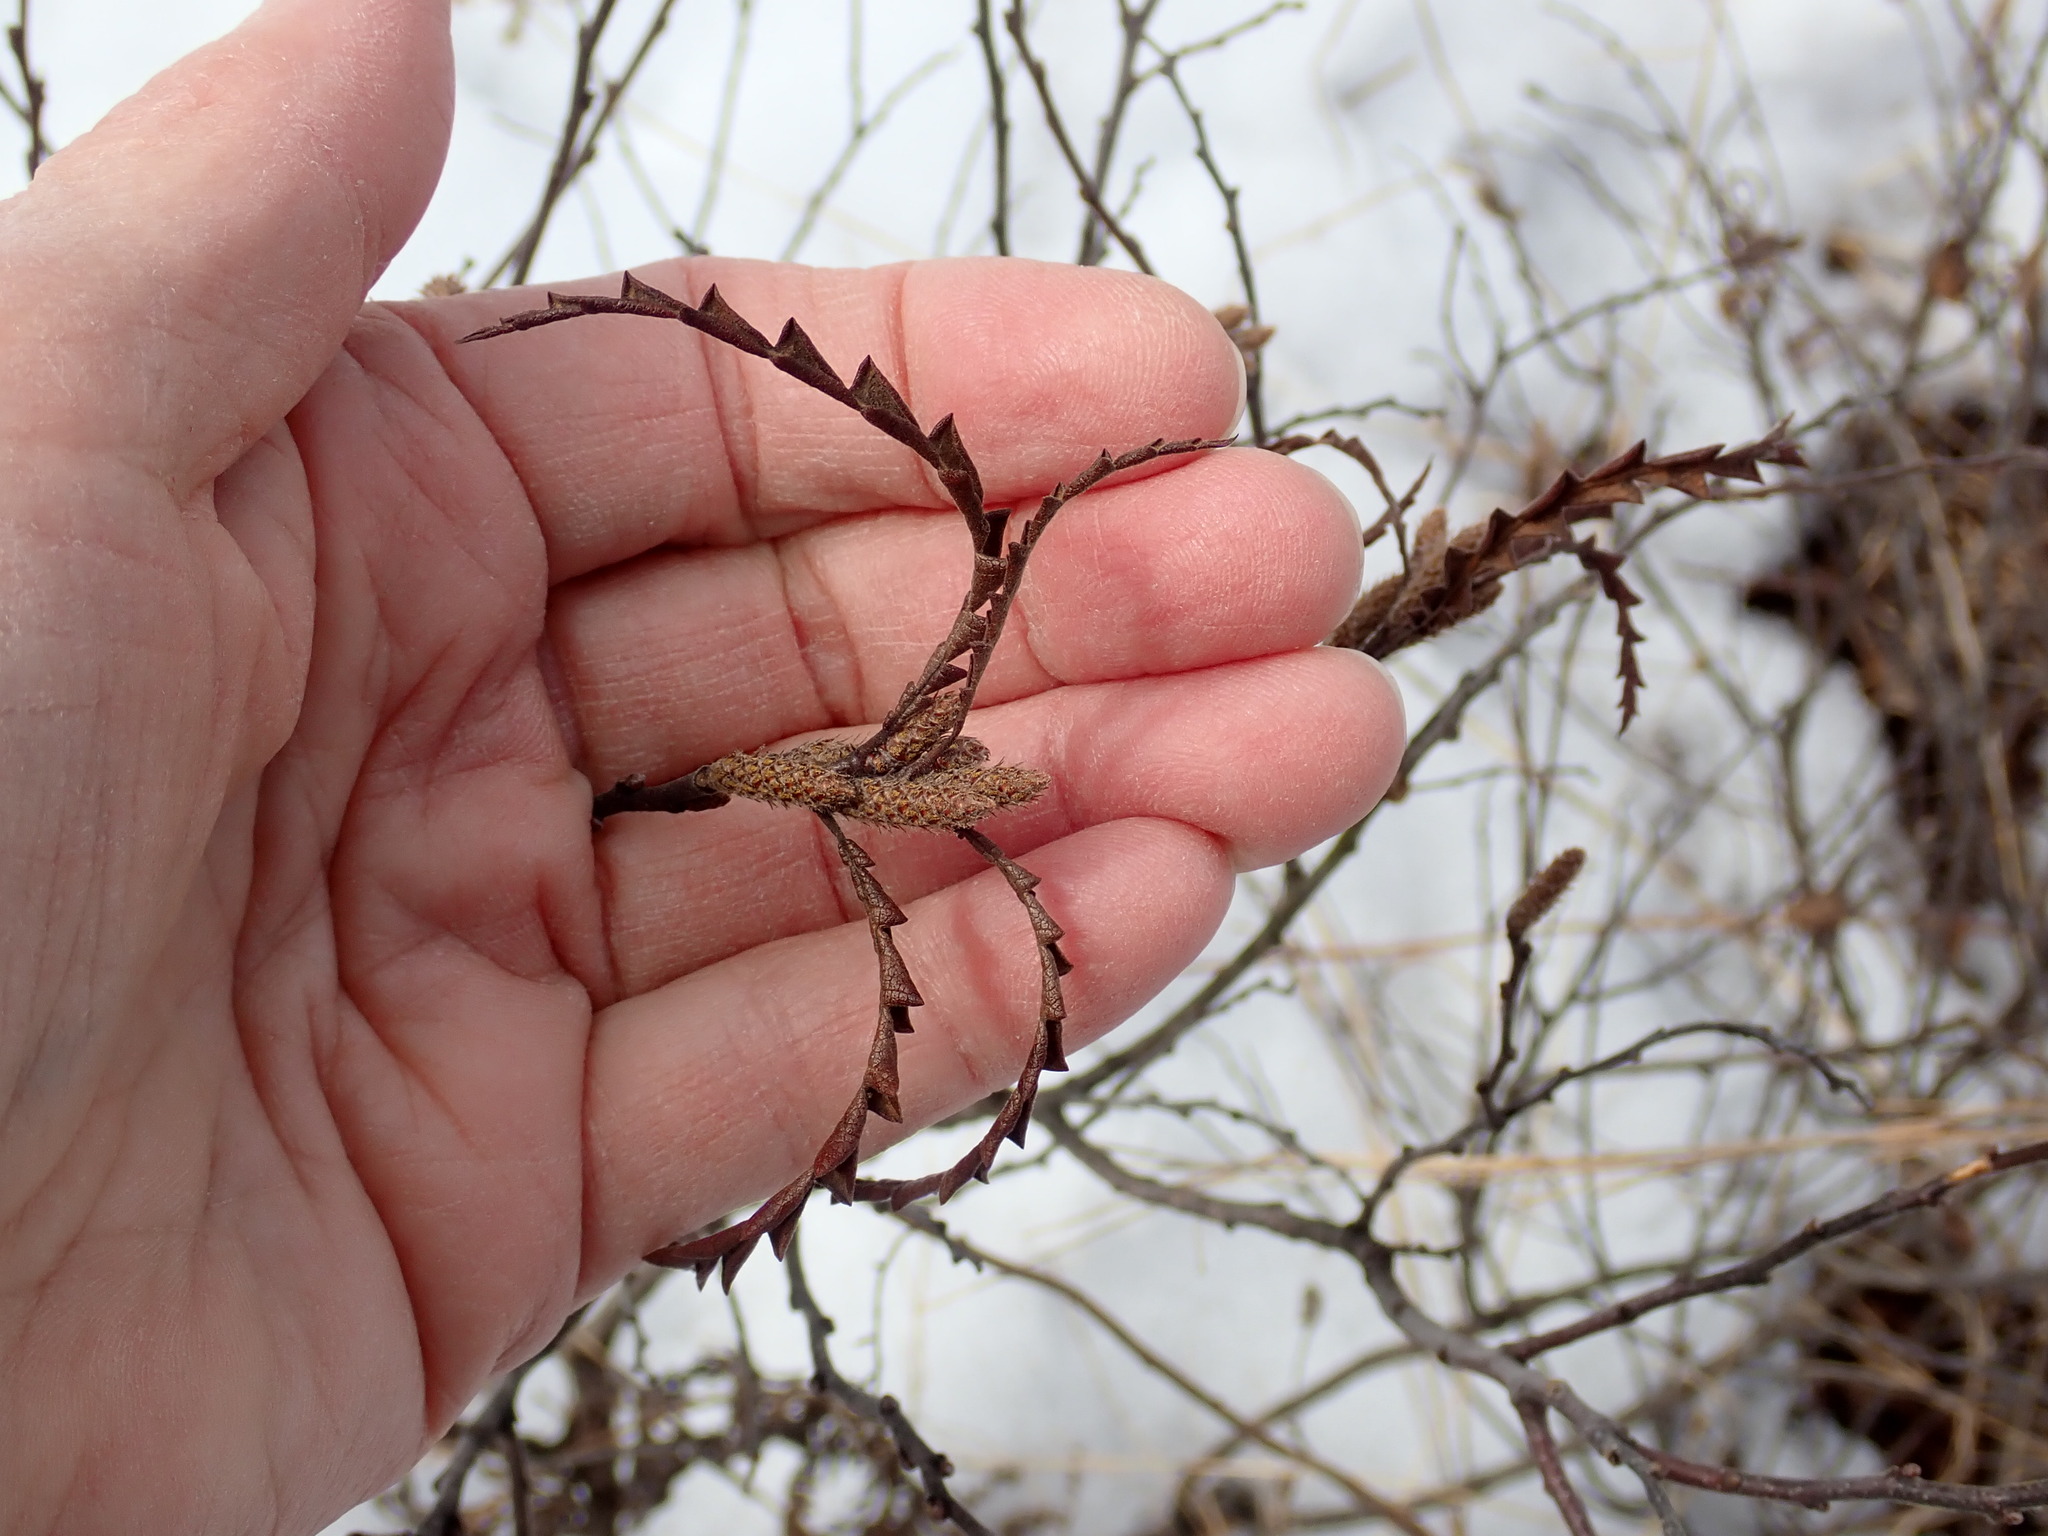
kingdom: Plantae
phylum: Tracheophyta
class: Magnoliopsida
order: Fagales
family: Myricaceae
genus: Comptonia
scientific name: Comptonia peregrina
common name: Sweet-fern
